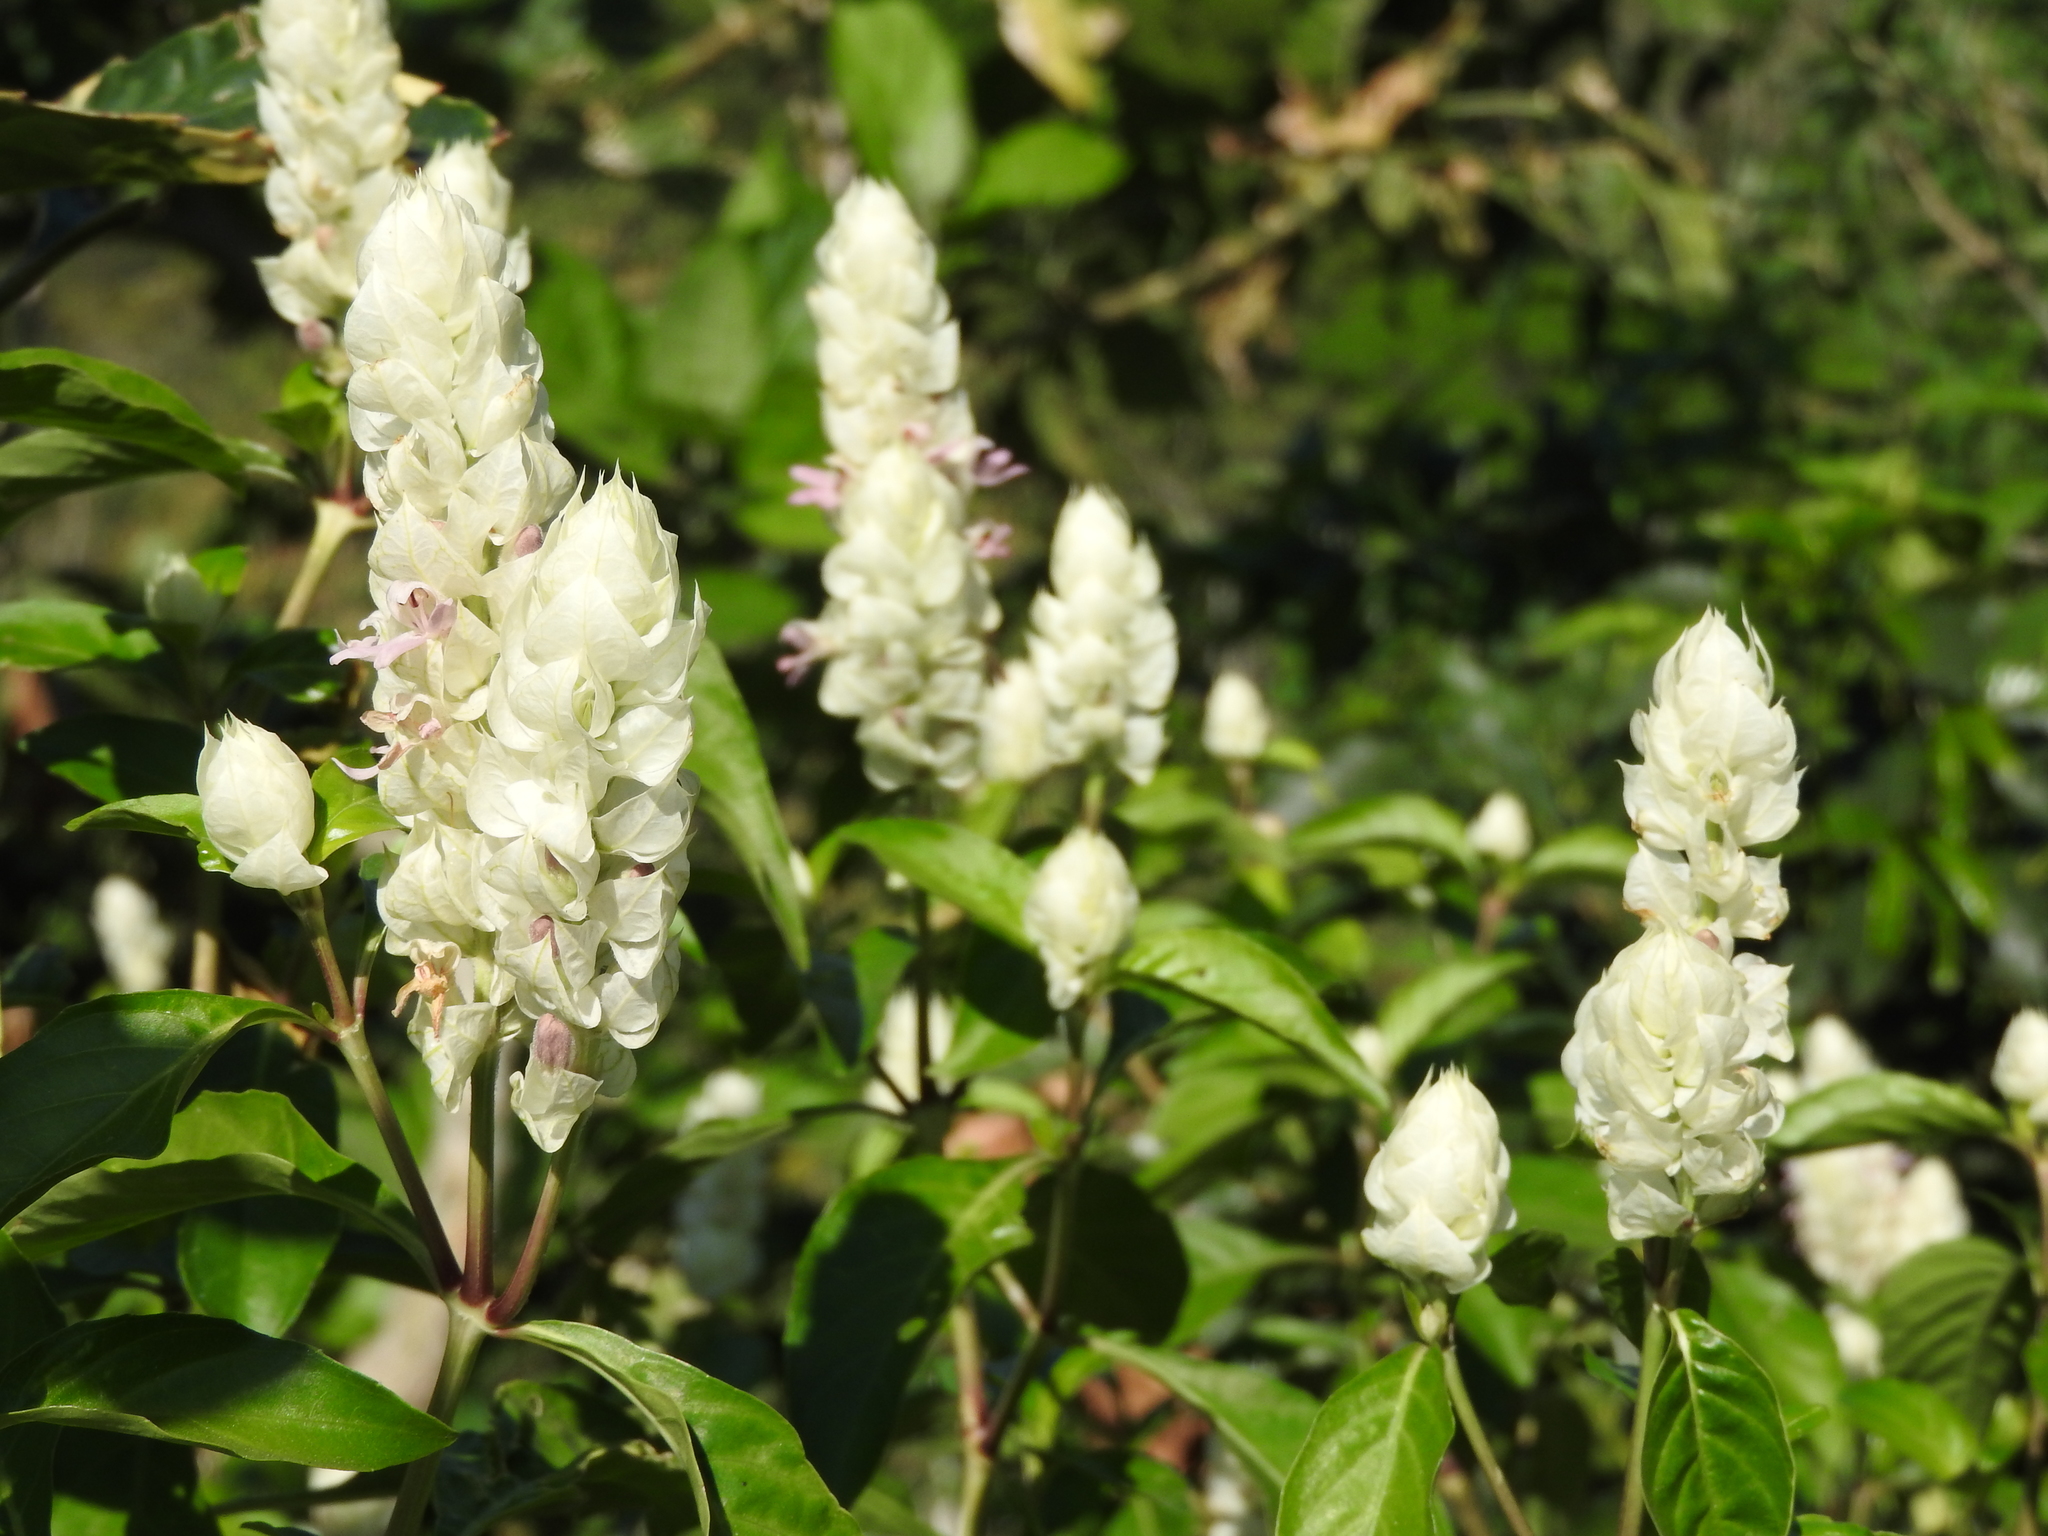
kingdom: Plantae
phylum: Tracheophyta
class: Magnoliopsida
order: Lamiales
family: Acanthaceae
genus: Justicia
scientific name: Justicia betonica
